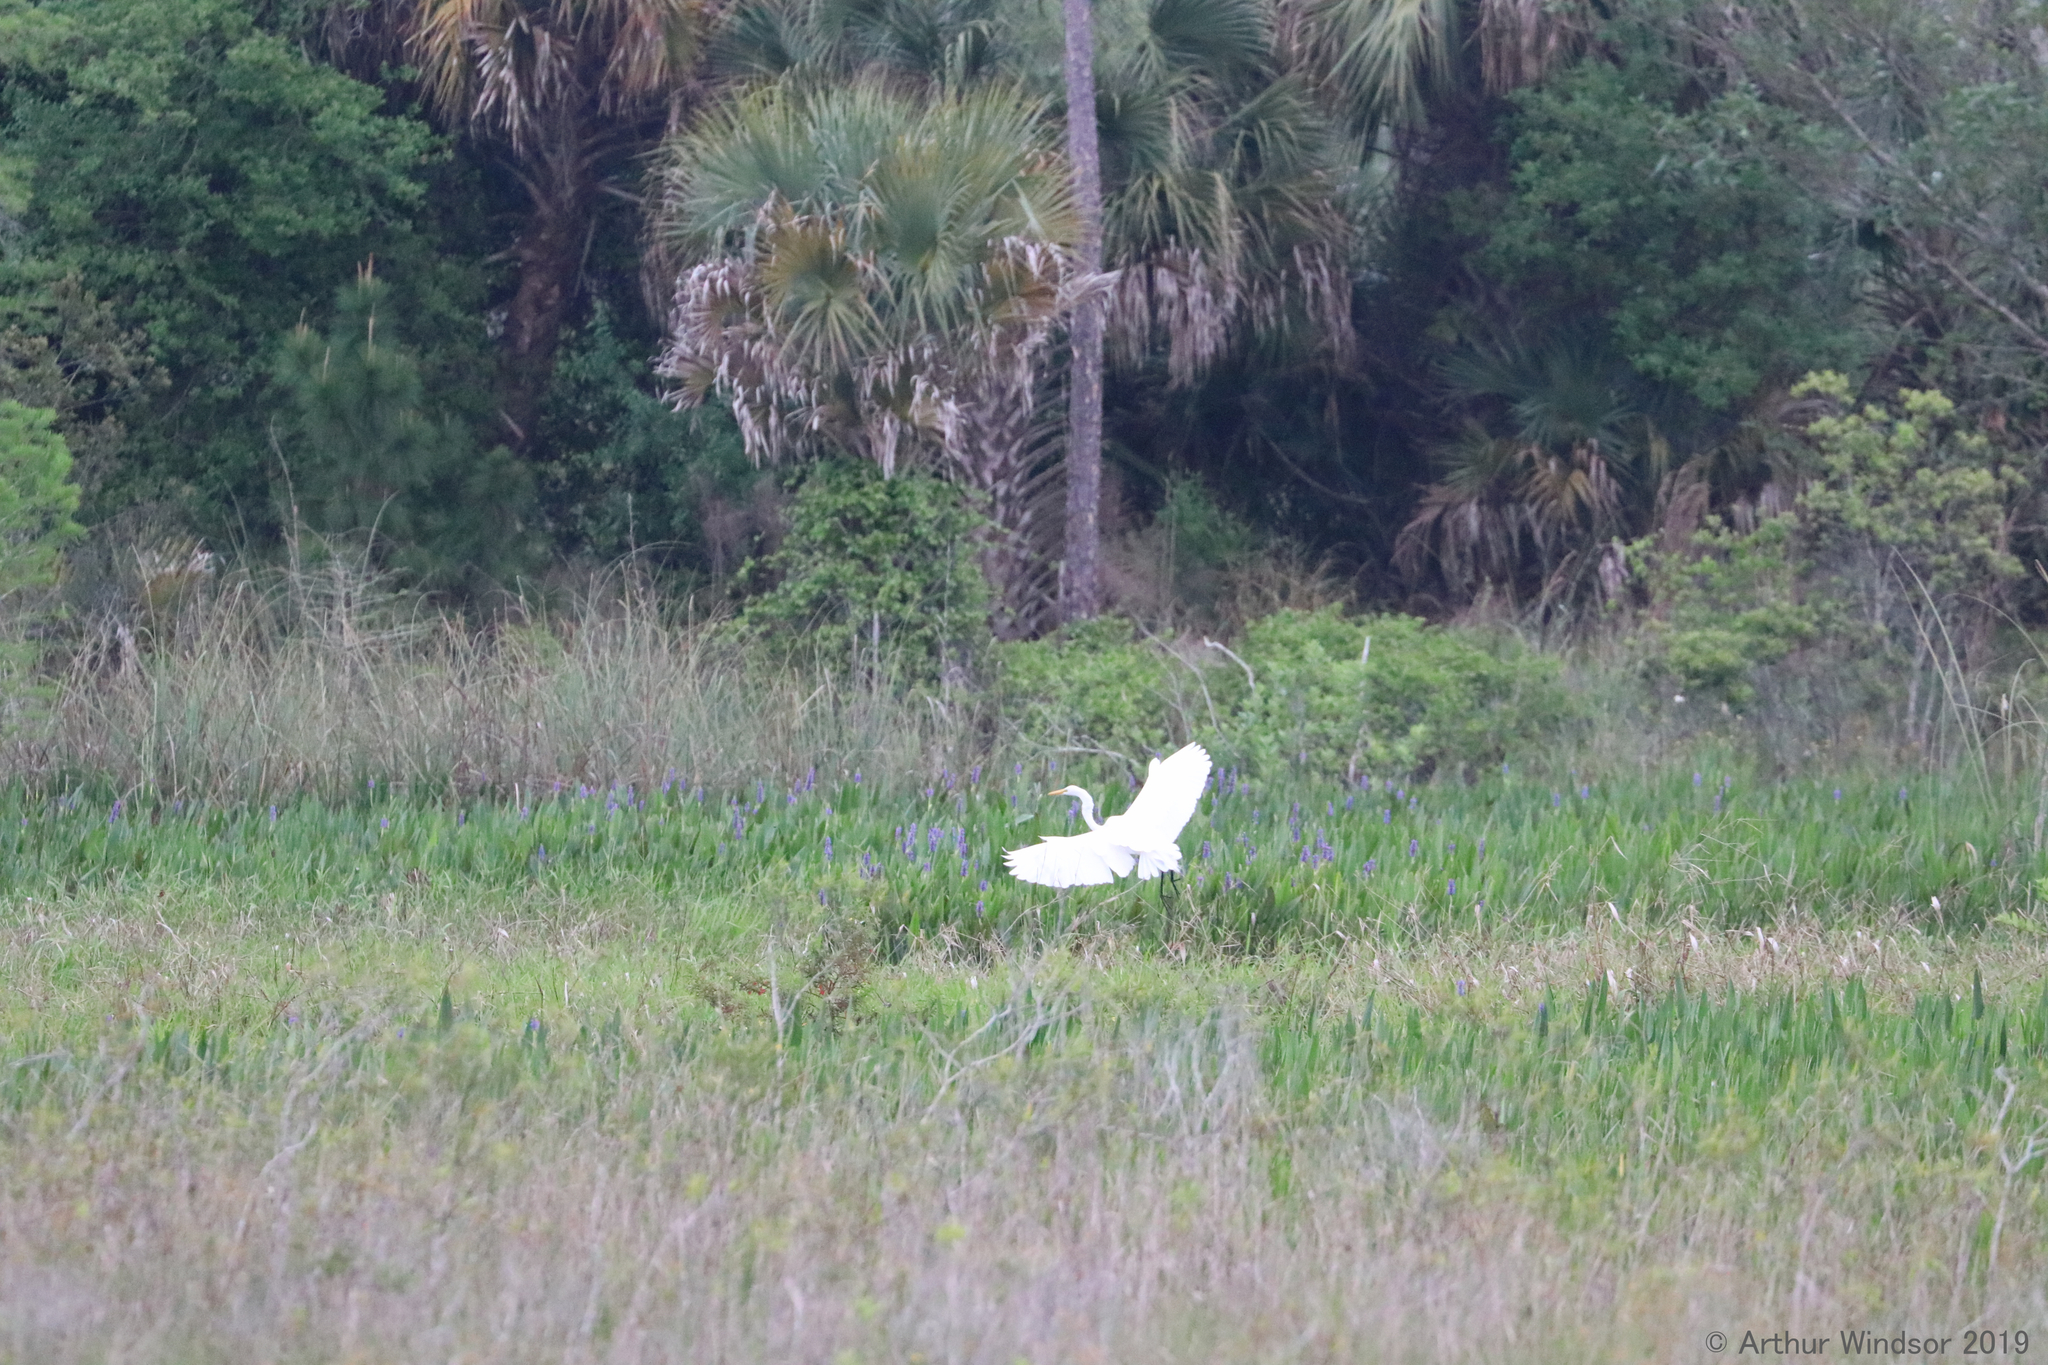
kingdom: Animalia
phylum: Chordata
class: Aves
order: Pelecaniformes
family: Ardeidae
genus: Ardea
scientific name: Ardea alba
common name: Great egret
